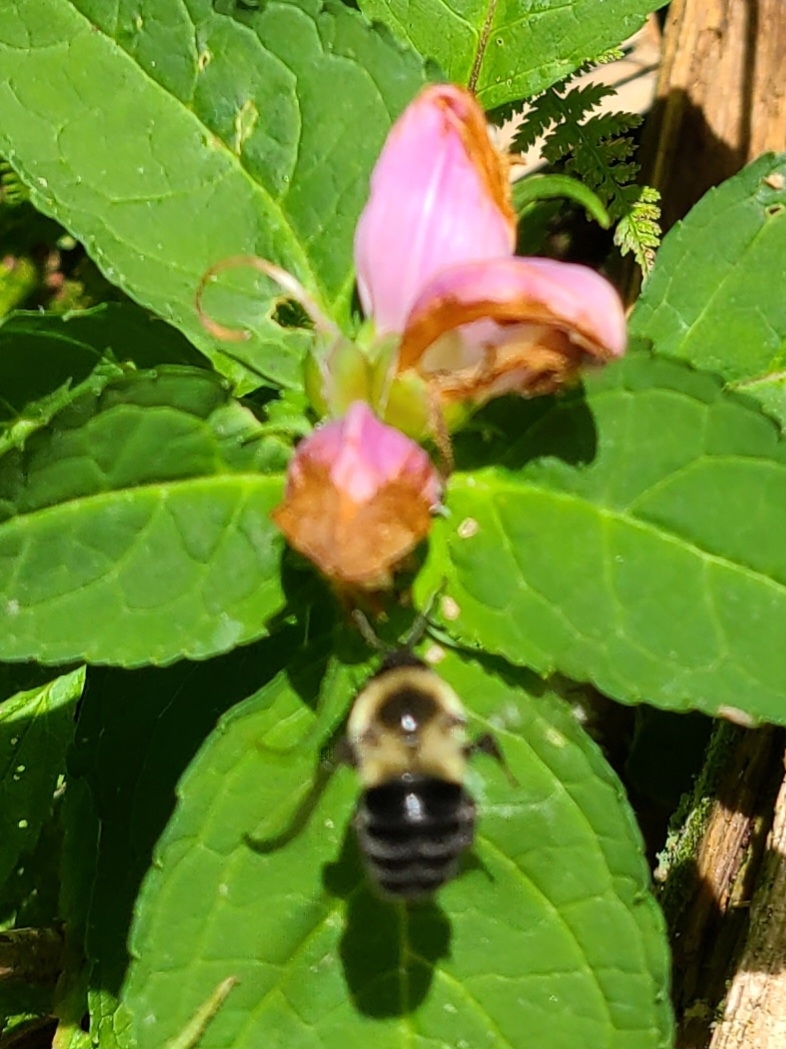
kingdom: Animalia
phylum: Arthropoda
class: Insecta
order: Hymenoptera
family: Apidae
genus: Bombus
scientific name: Bombus impatiens
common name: Common eastern bumble bee
